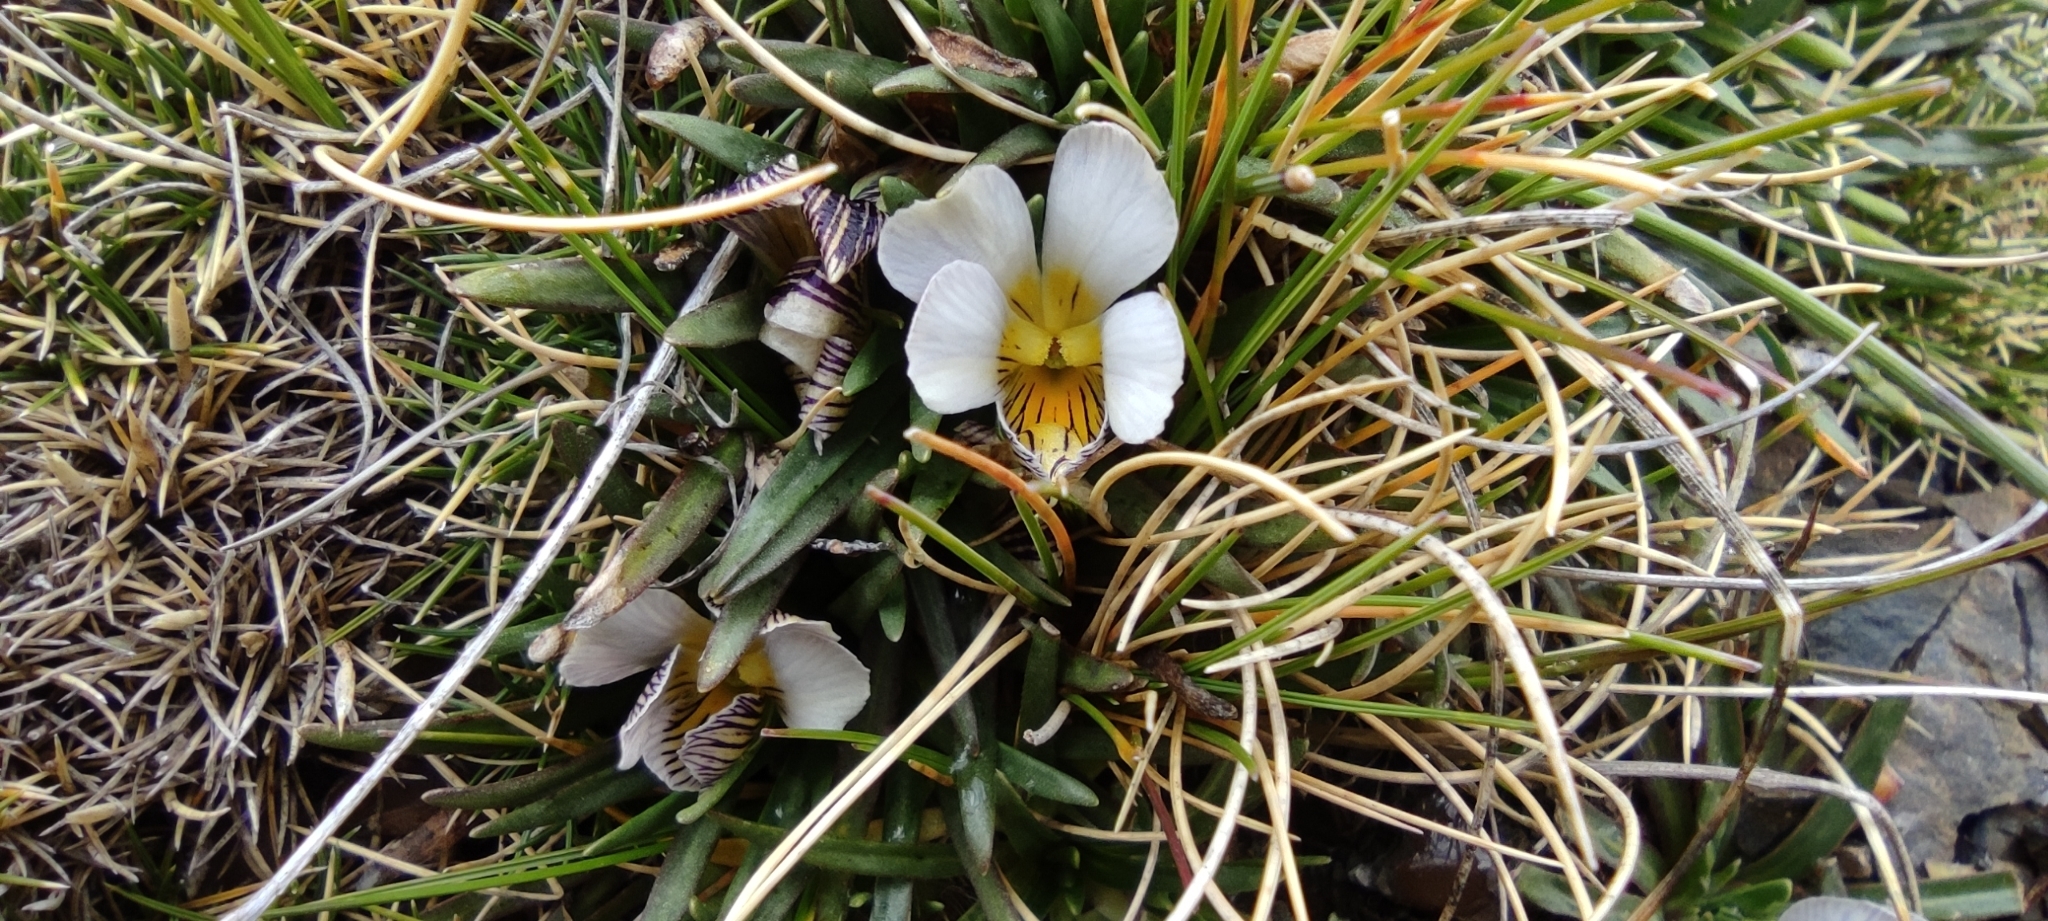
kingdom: Plantae
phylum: Tracheophyta
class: Magnoliopsida
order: Malpighiales
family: Violaceae
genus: Viola
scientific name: Viola pygmaea
